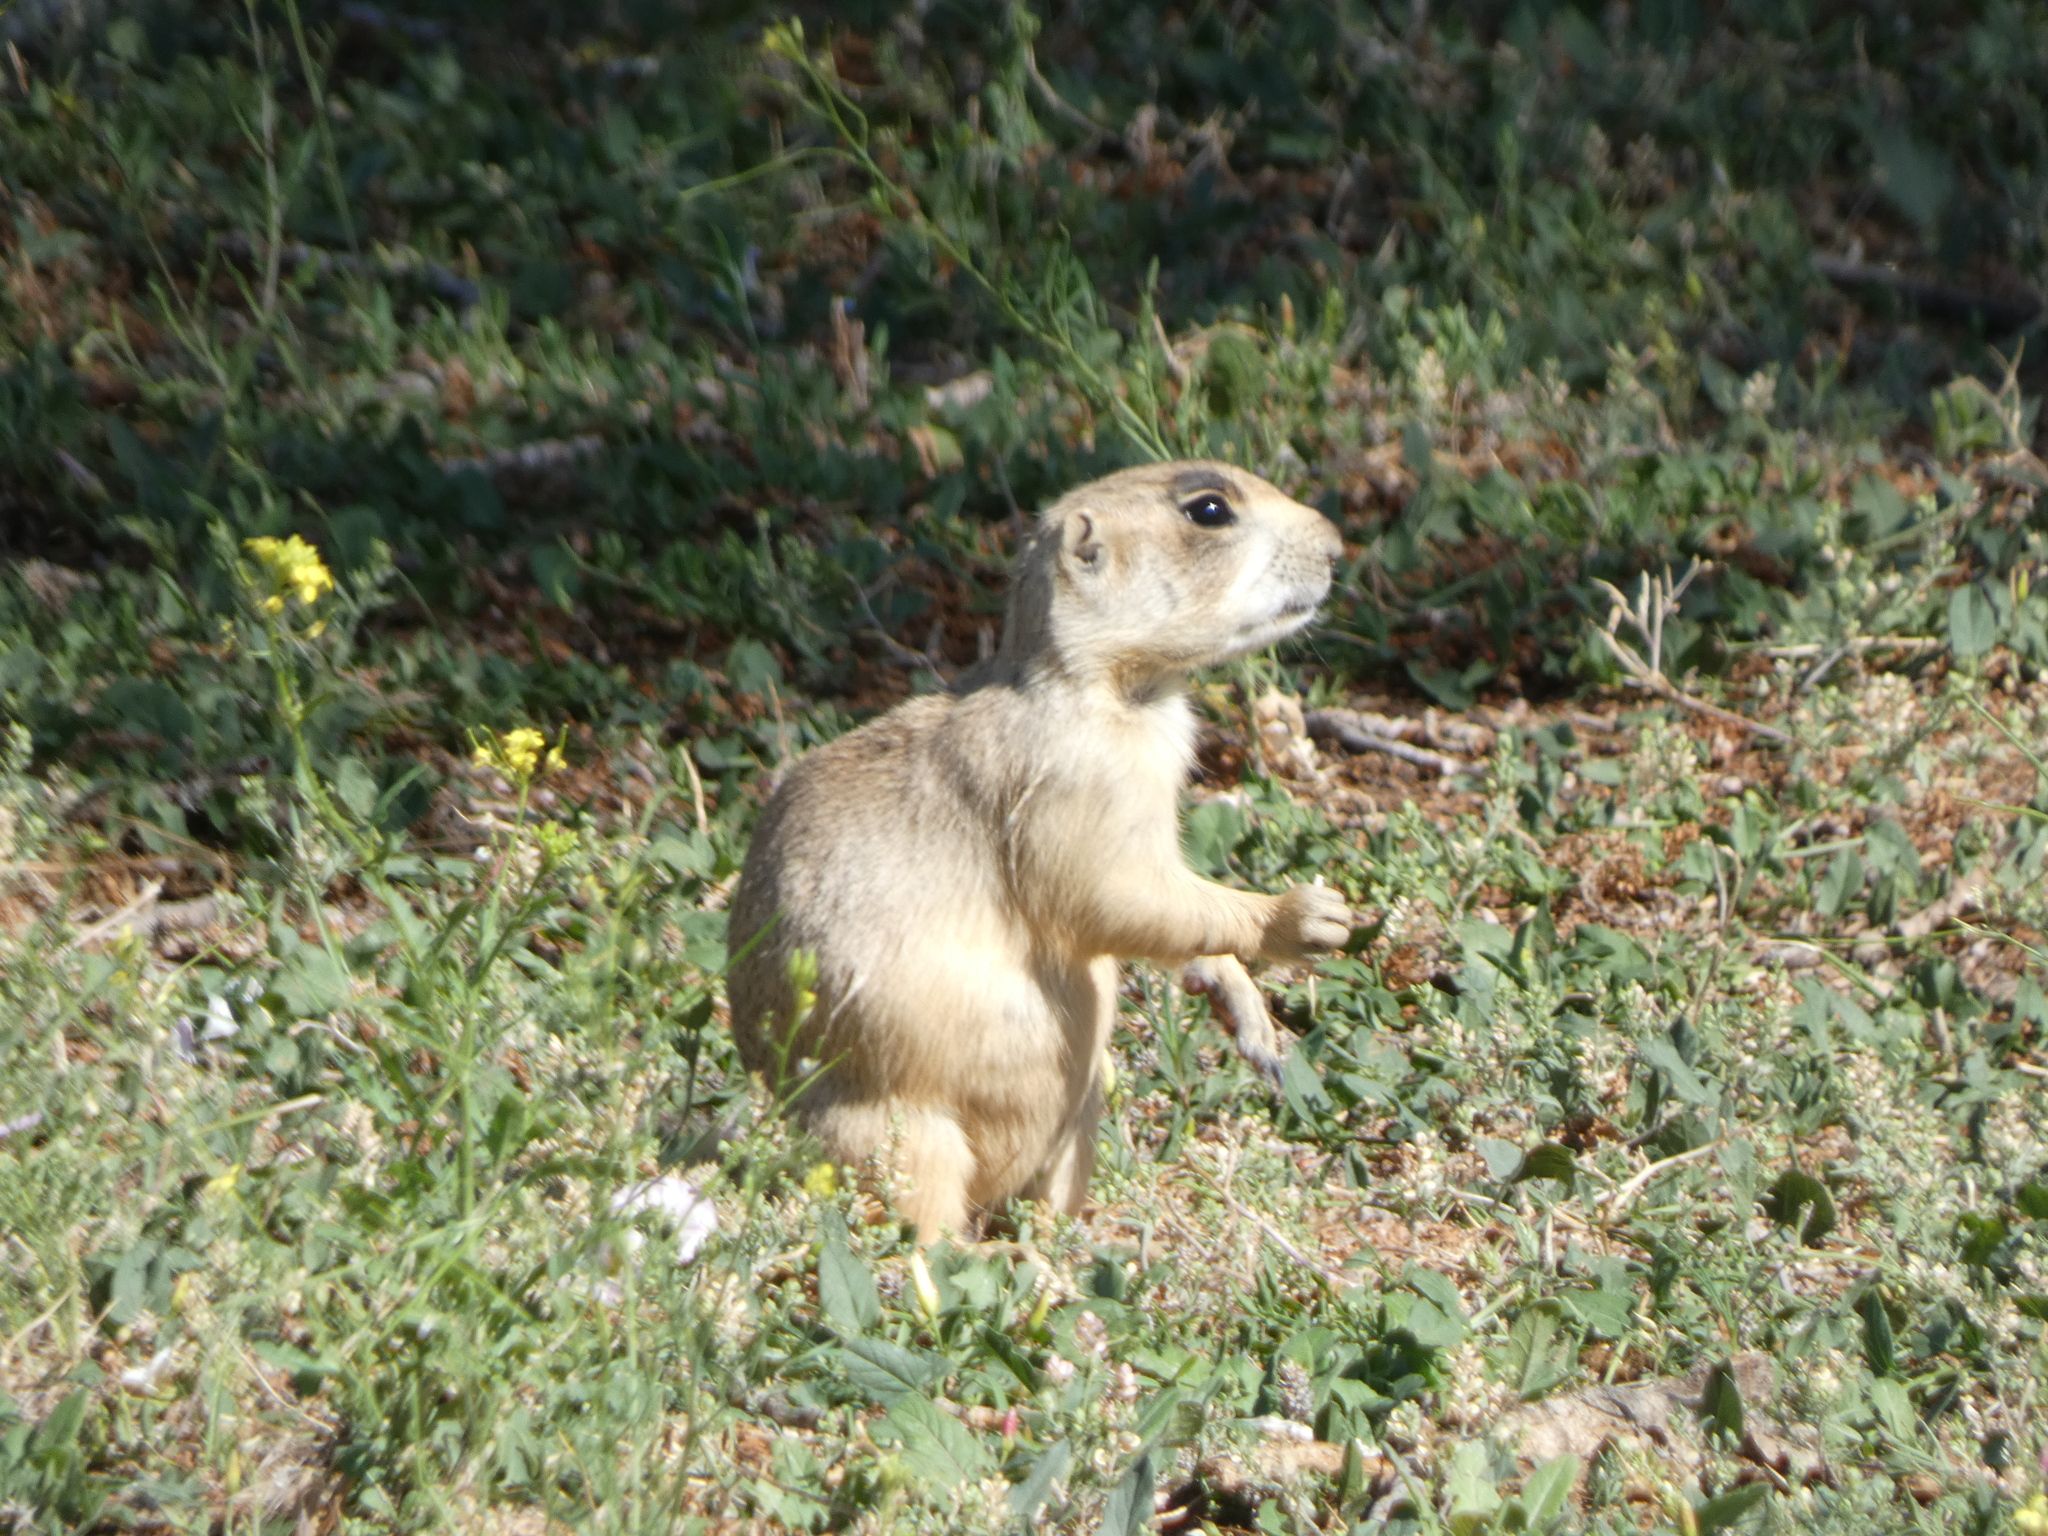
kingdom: Animalia
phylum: Chordata
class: Mammalia
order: Rodentia
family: Sciuridae
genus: Cynomys
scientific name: Cynomys leucurus
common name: White-tailed prairie dog
